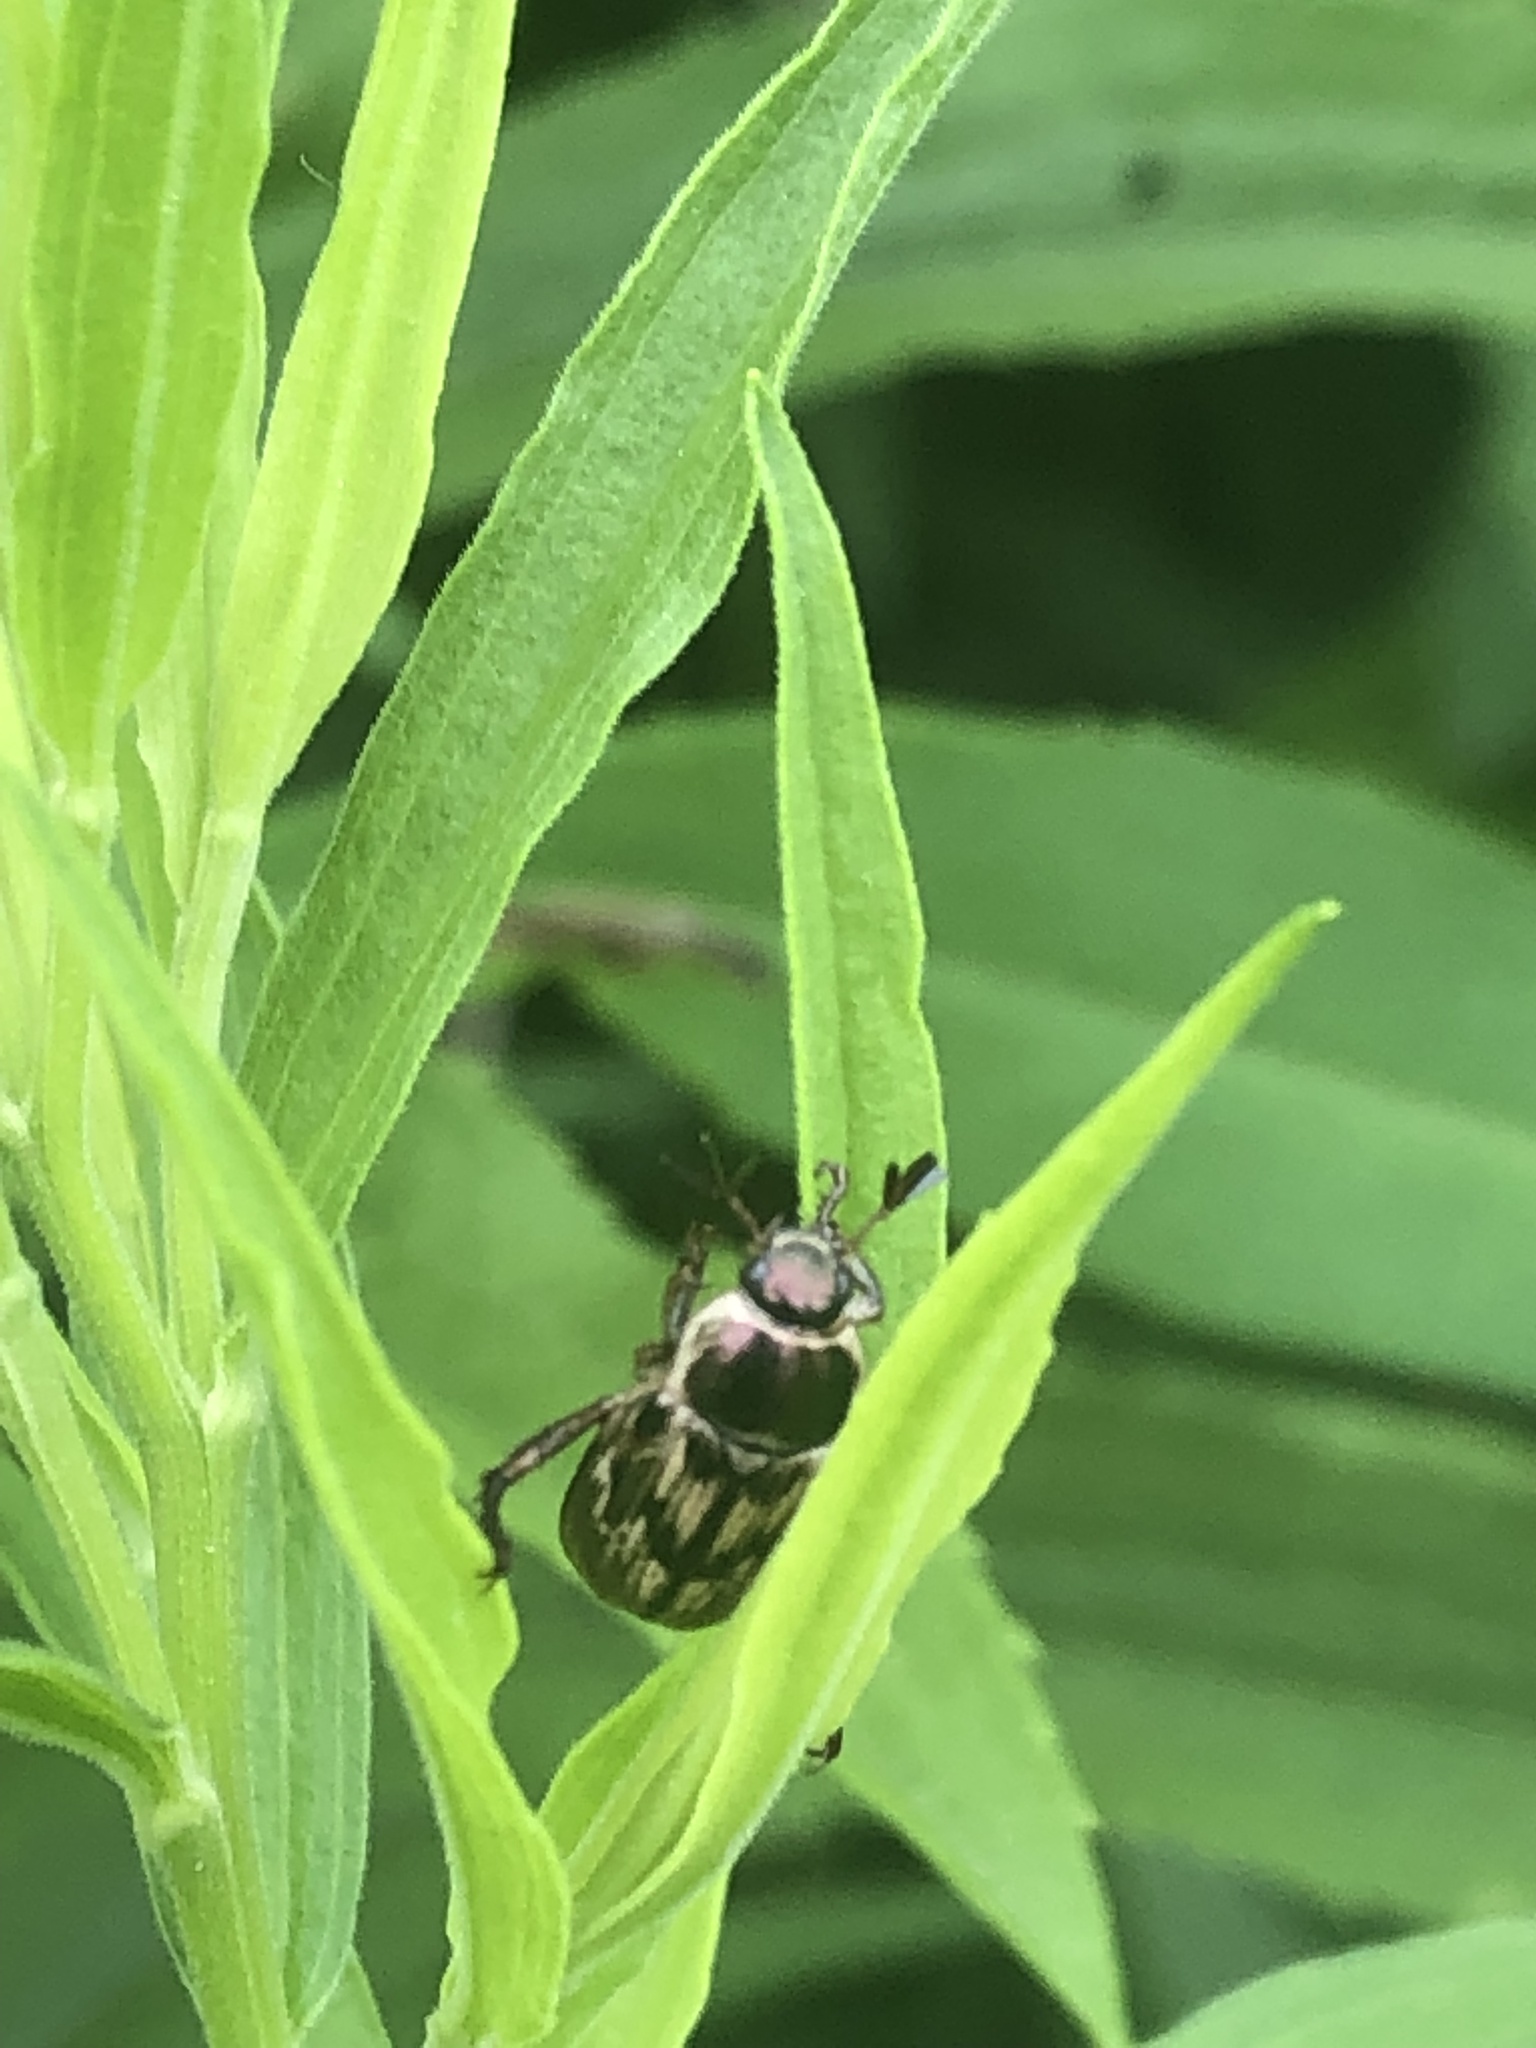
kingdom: Animalia
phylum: Arthropoda
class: Insecta
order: Coleoptera
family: Scarabaeidae
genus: Exomala
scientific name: Exomala orientalis
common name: Oriental beetle
